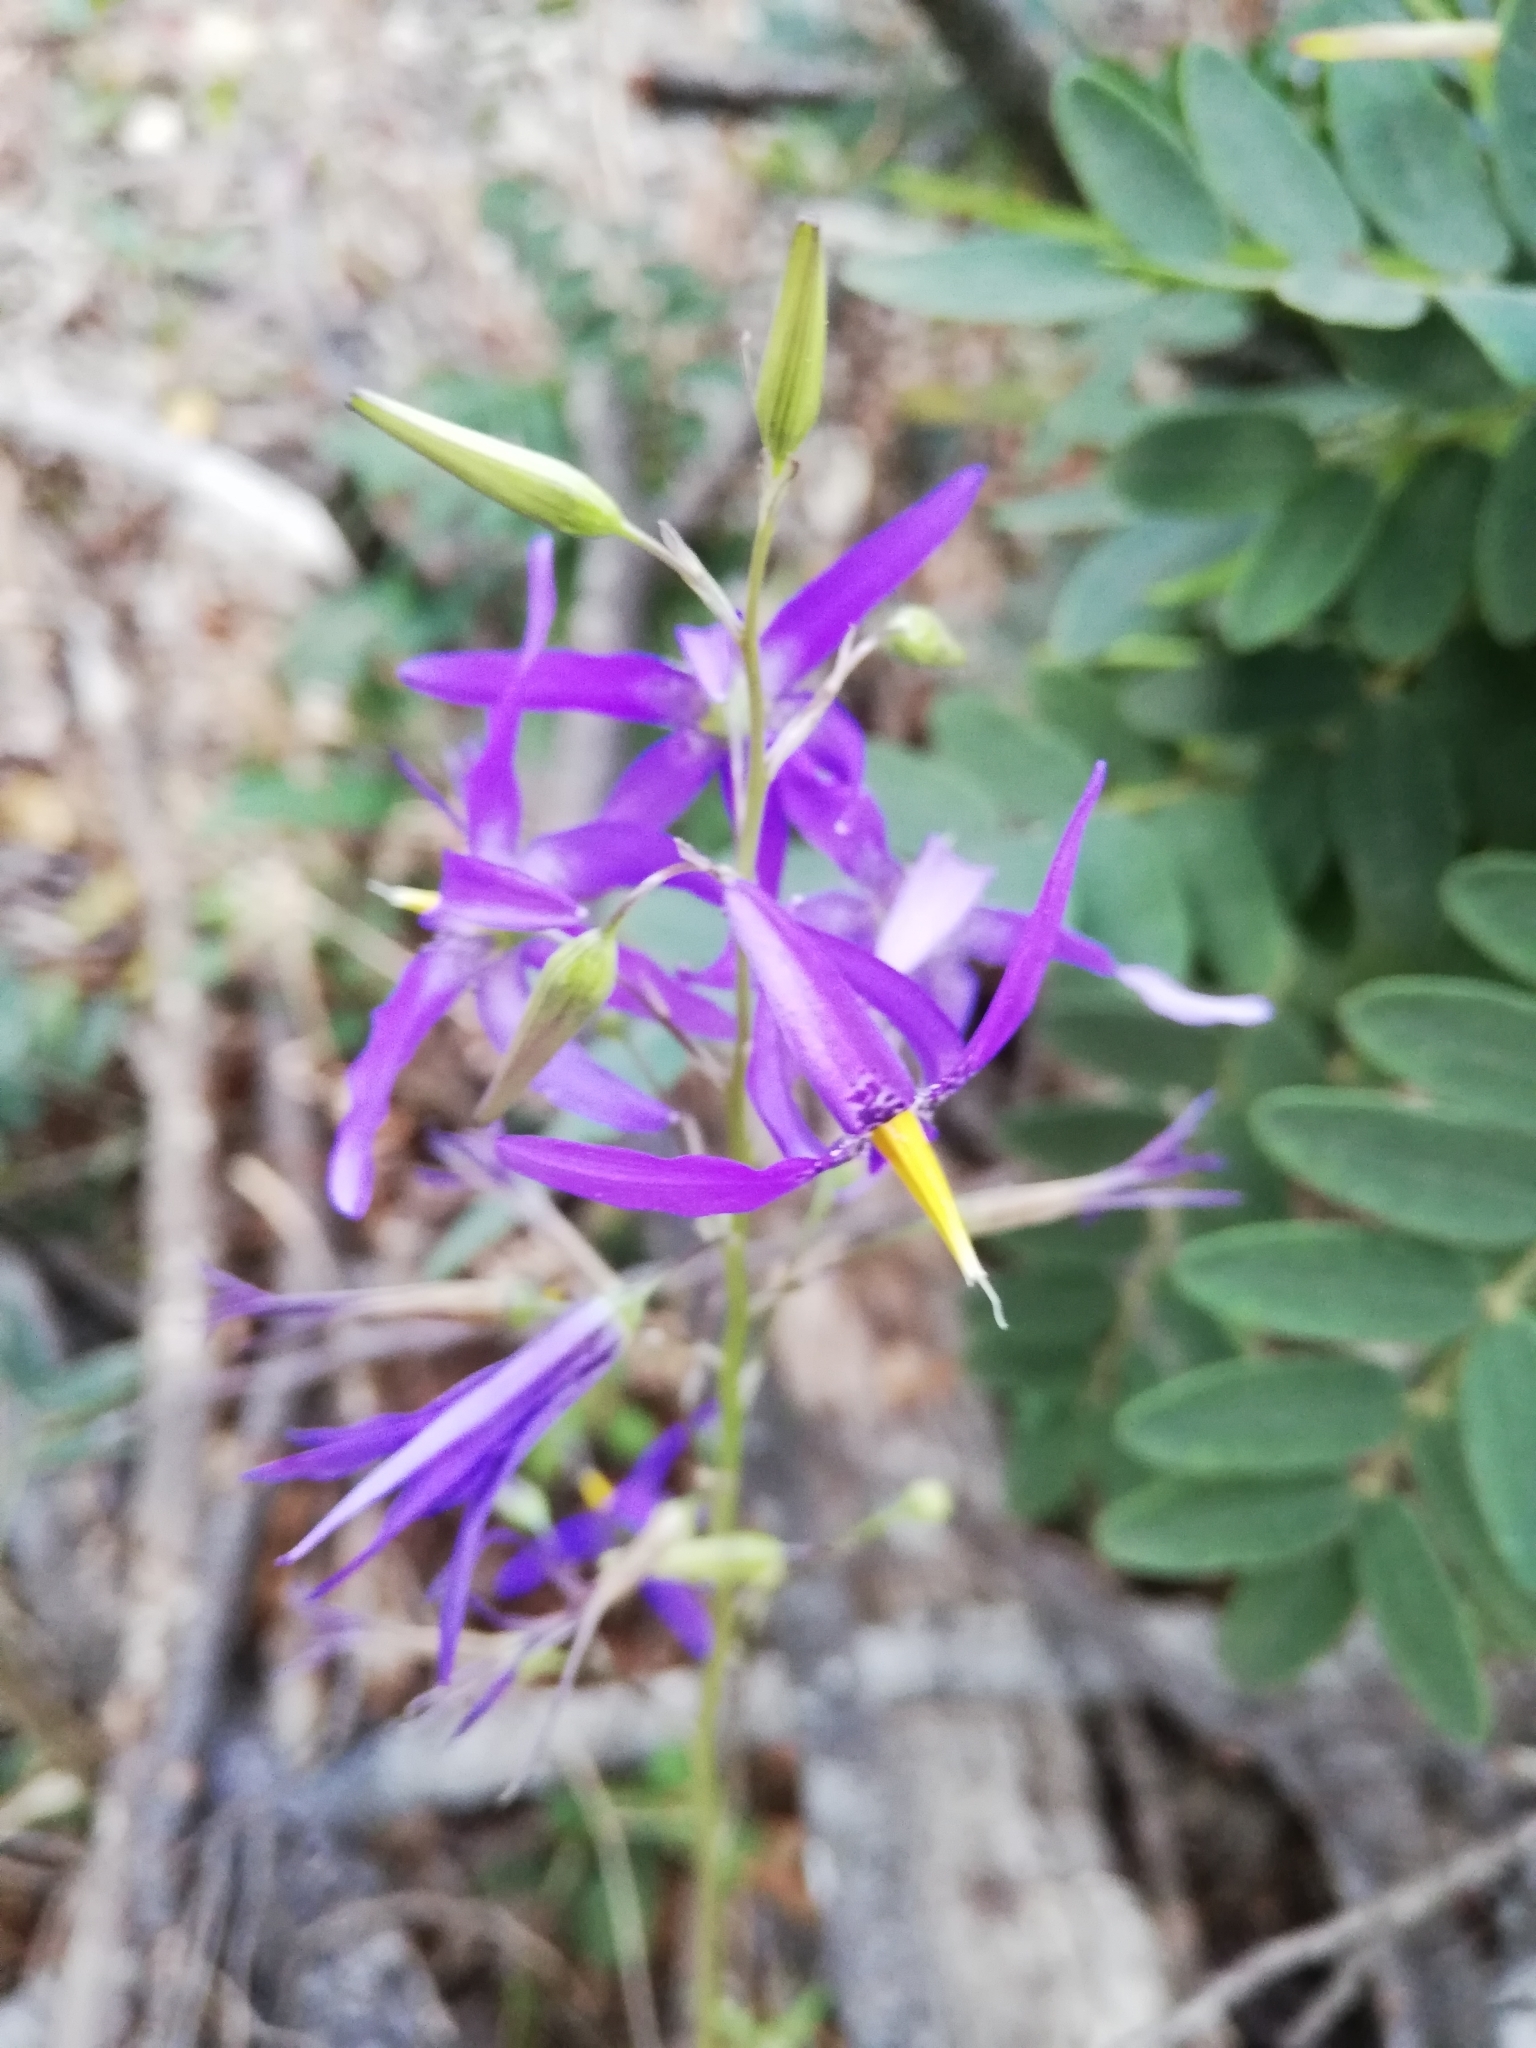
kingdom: Plantae
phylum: Tracheophyta
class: Liliopsida
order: Asparagales
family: Tecophilaeaceae
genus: Conanthera
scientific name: Conanthera bifolia
